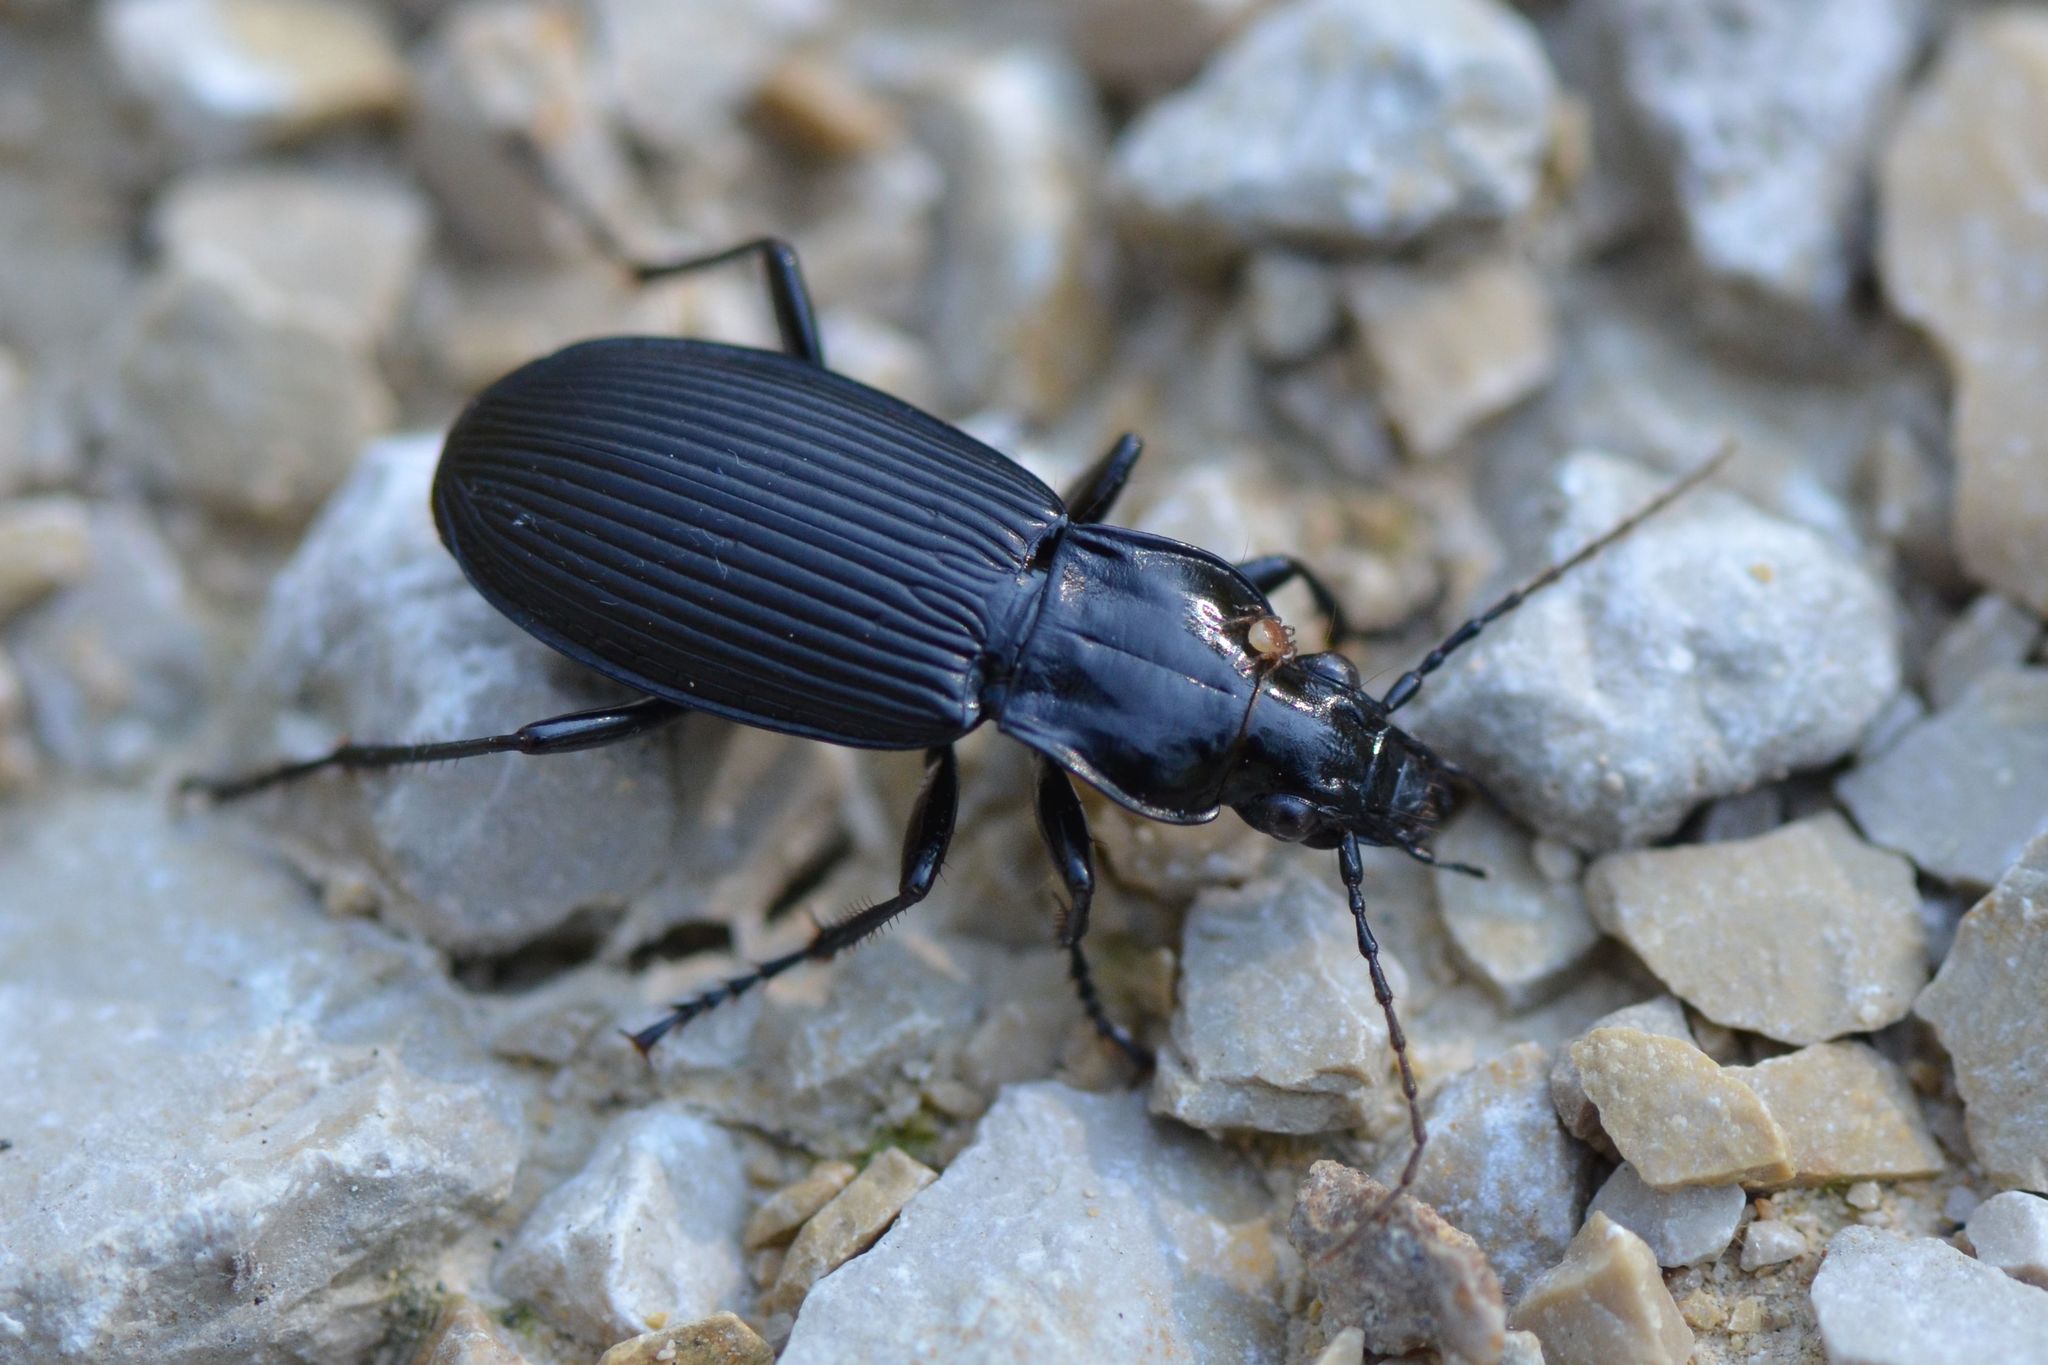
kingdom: Animalia
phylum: Arthropoda
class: Insecta
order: Coleoptera
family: Carabidae
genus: Pterostichus
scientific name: Pterostichus niger
